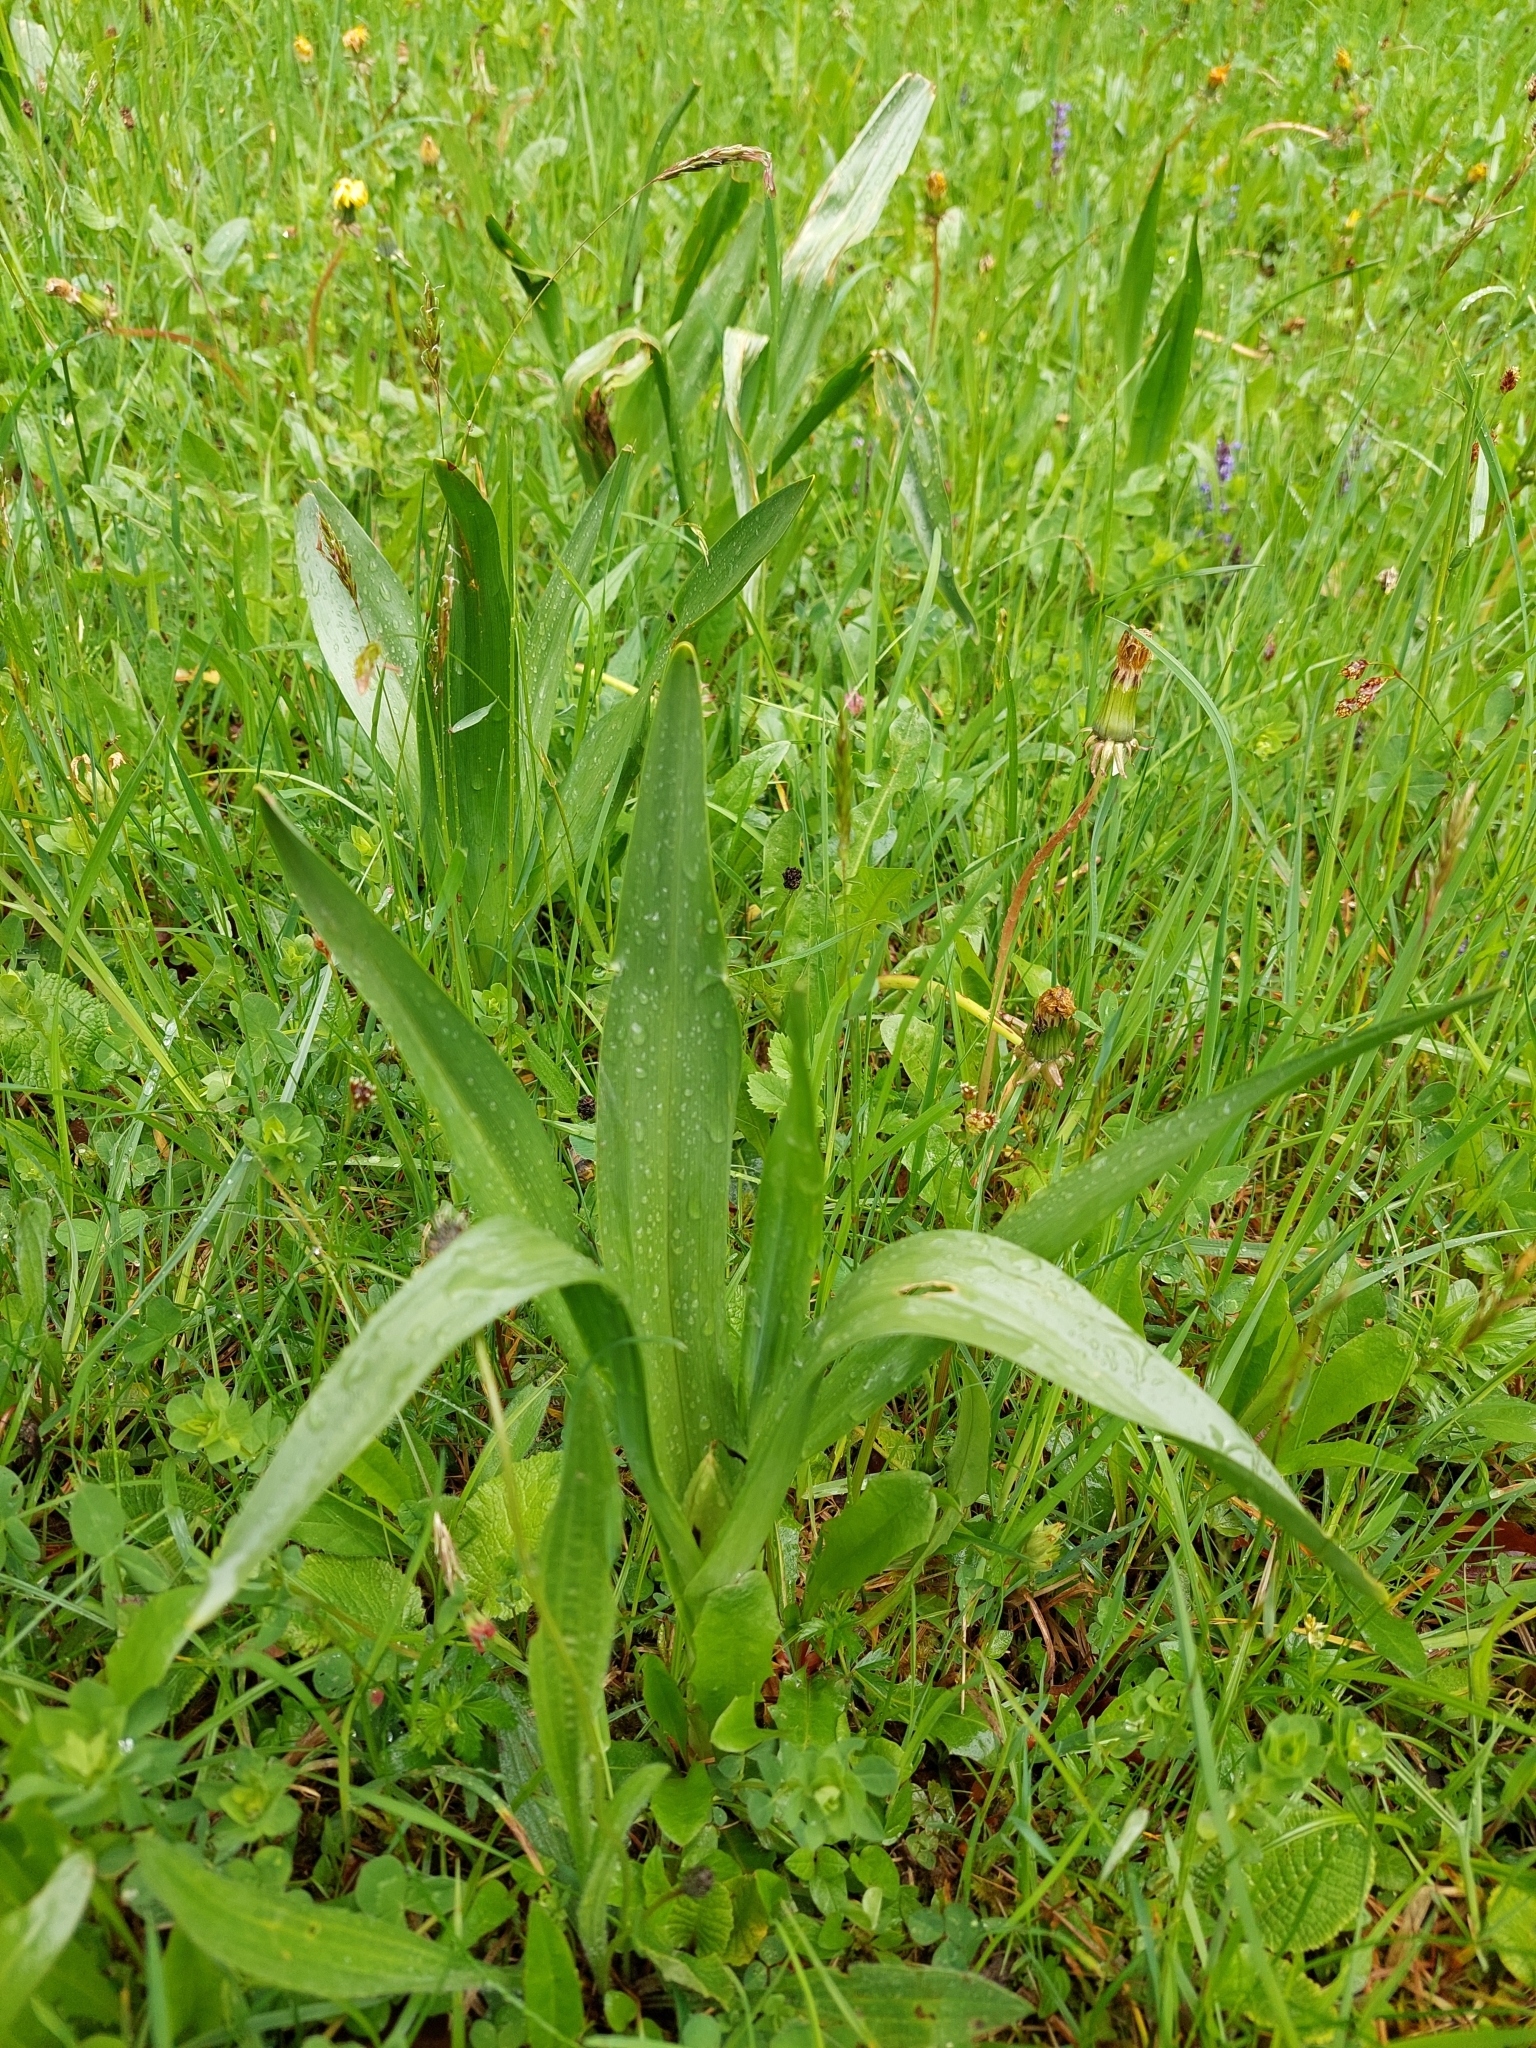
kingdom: Plantae
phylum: Tracheophyta
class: Liliopsida
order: Liliales
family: Colchicaceae
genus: Colchicum
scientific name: Colchicum autumnale
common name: Autumn crocus
